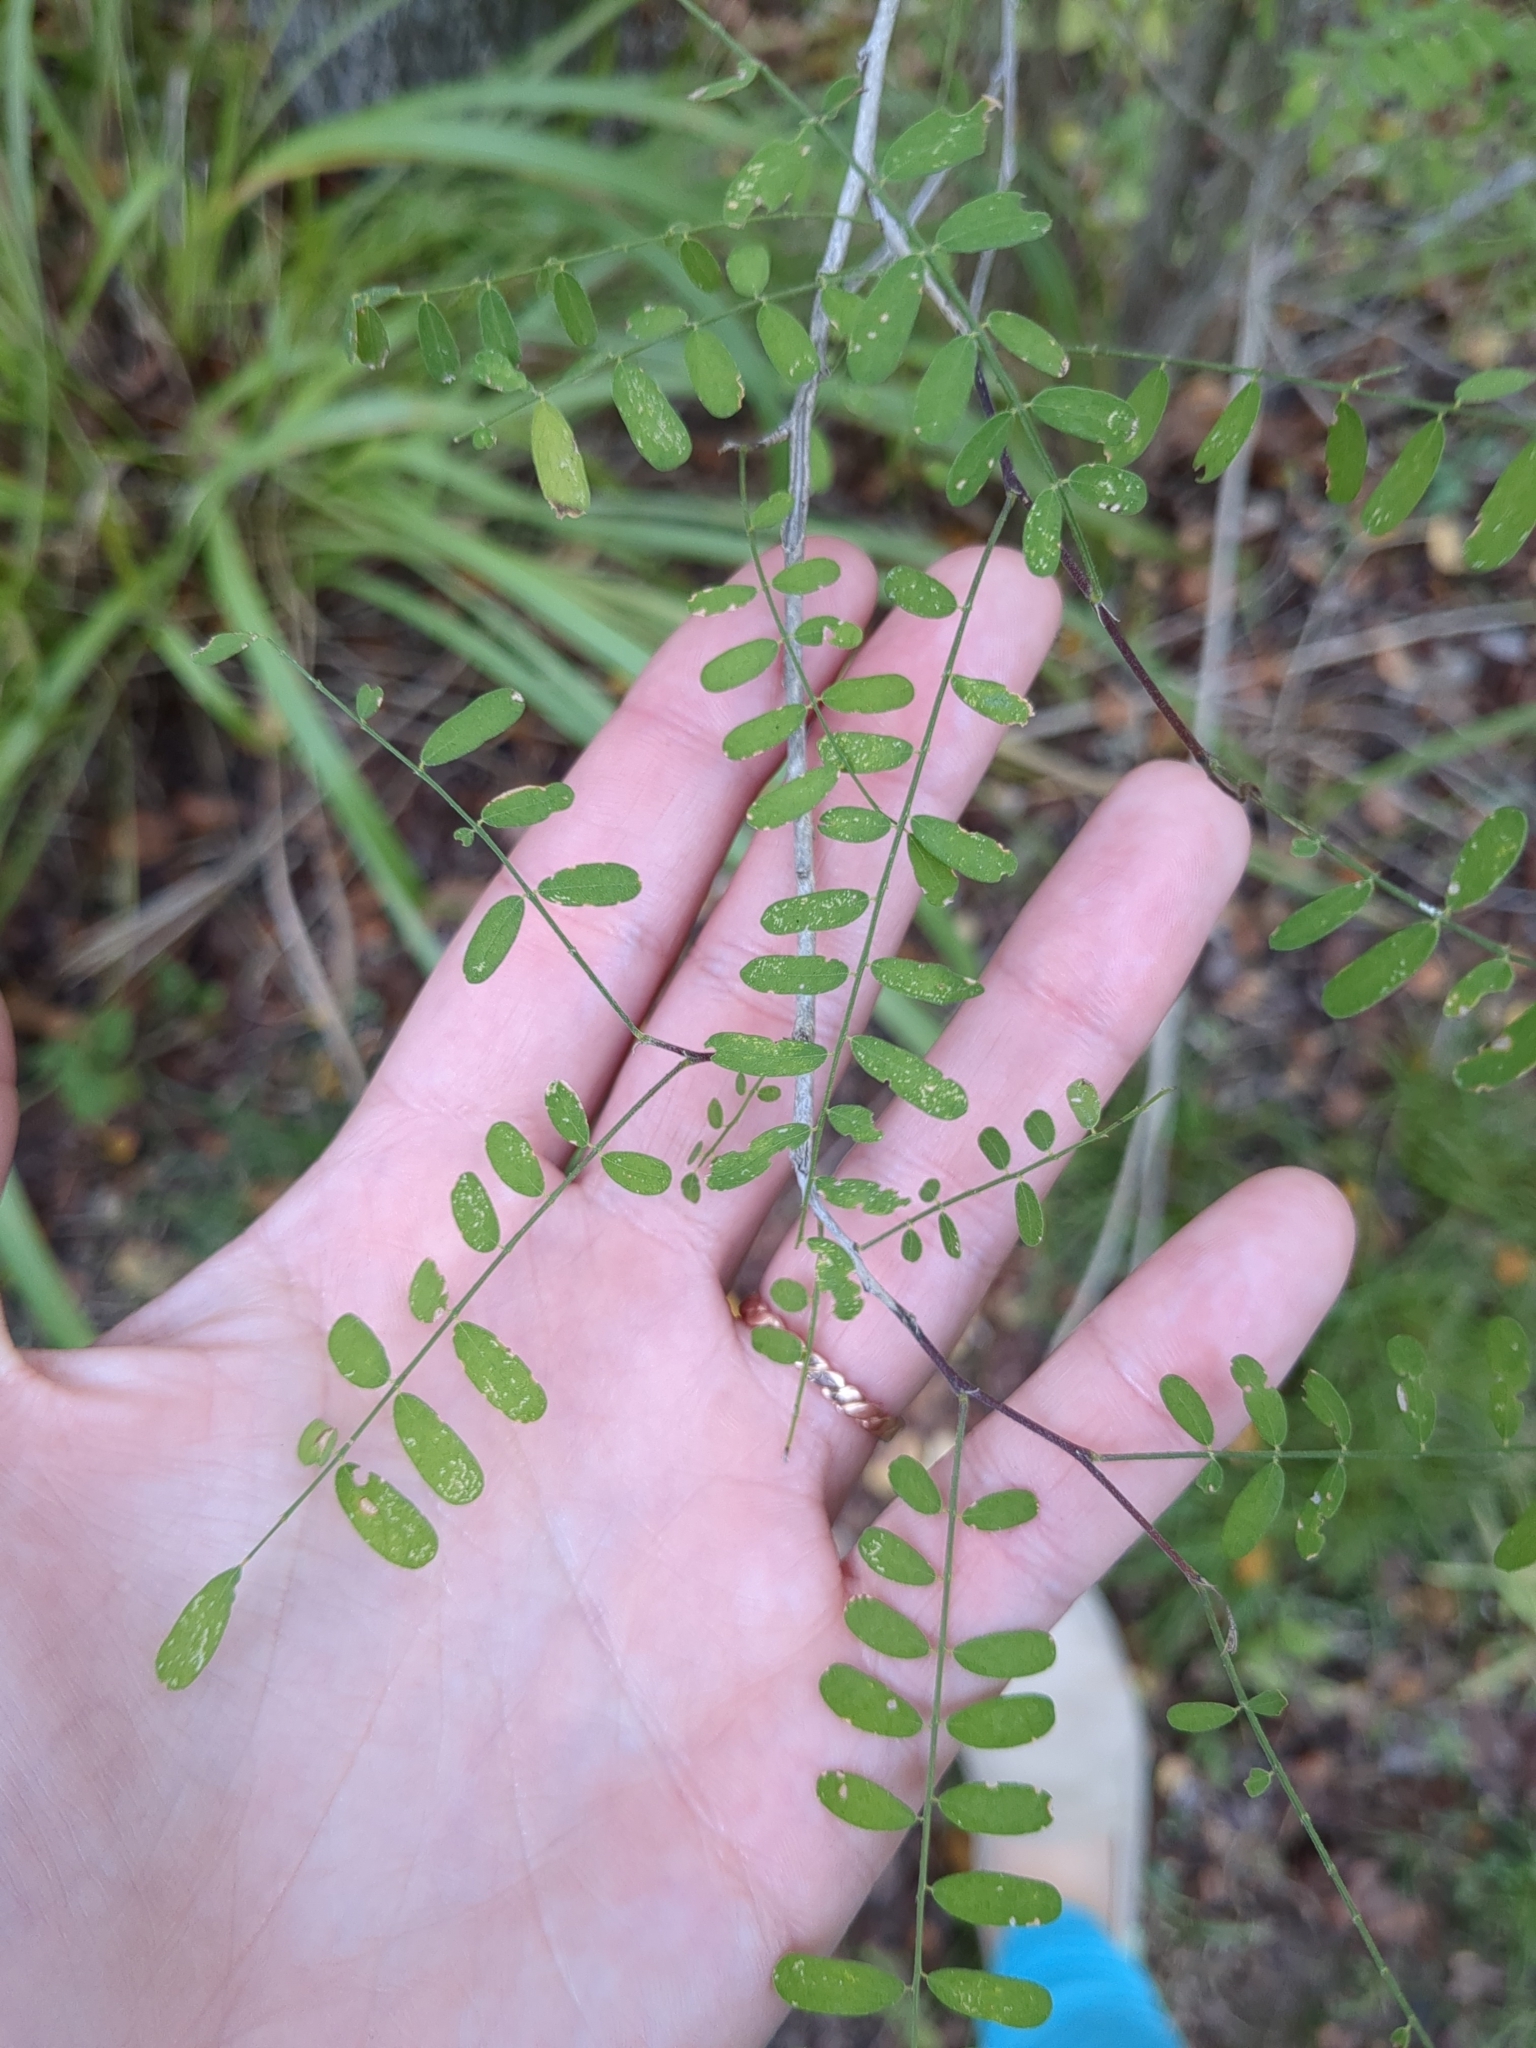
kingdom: Plantae
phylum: Tracheophyta
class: Magnoliopsida
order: Fabales
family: Fabaceae
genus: Eysenhardtia
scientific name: Eysenhardtia texana
